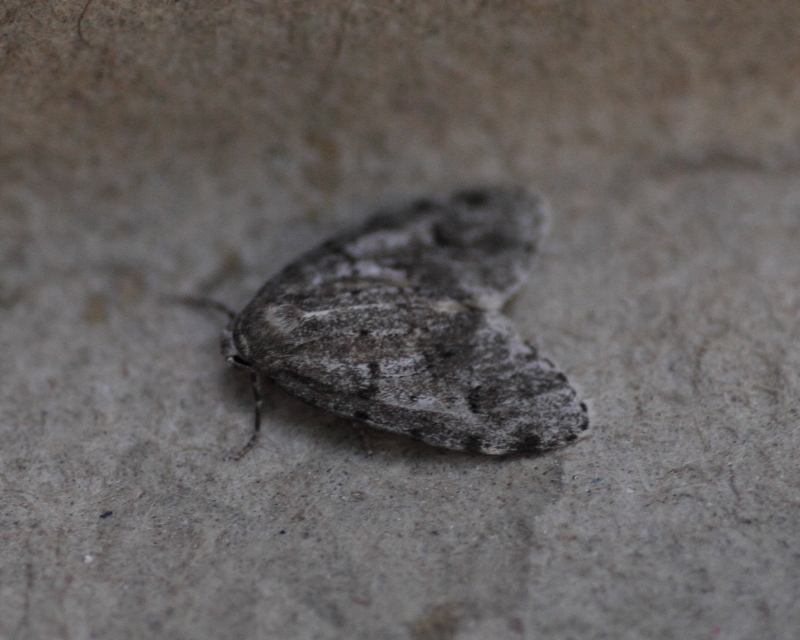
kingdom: Animalia
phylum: Arthropoda
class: Insecta
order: Lepidoptera
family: Erebidae
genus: Clemensia
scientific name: Clemensia umbrata
